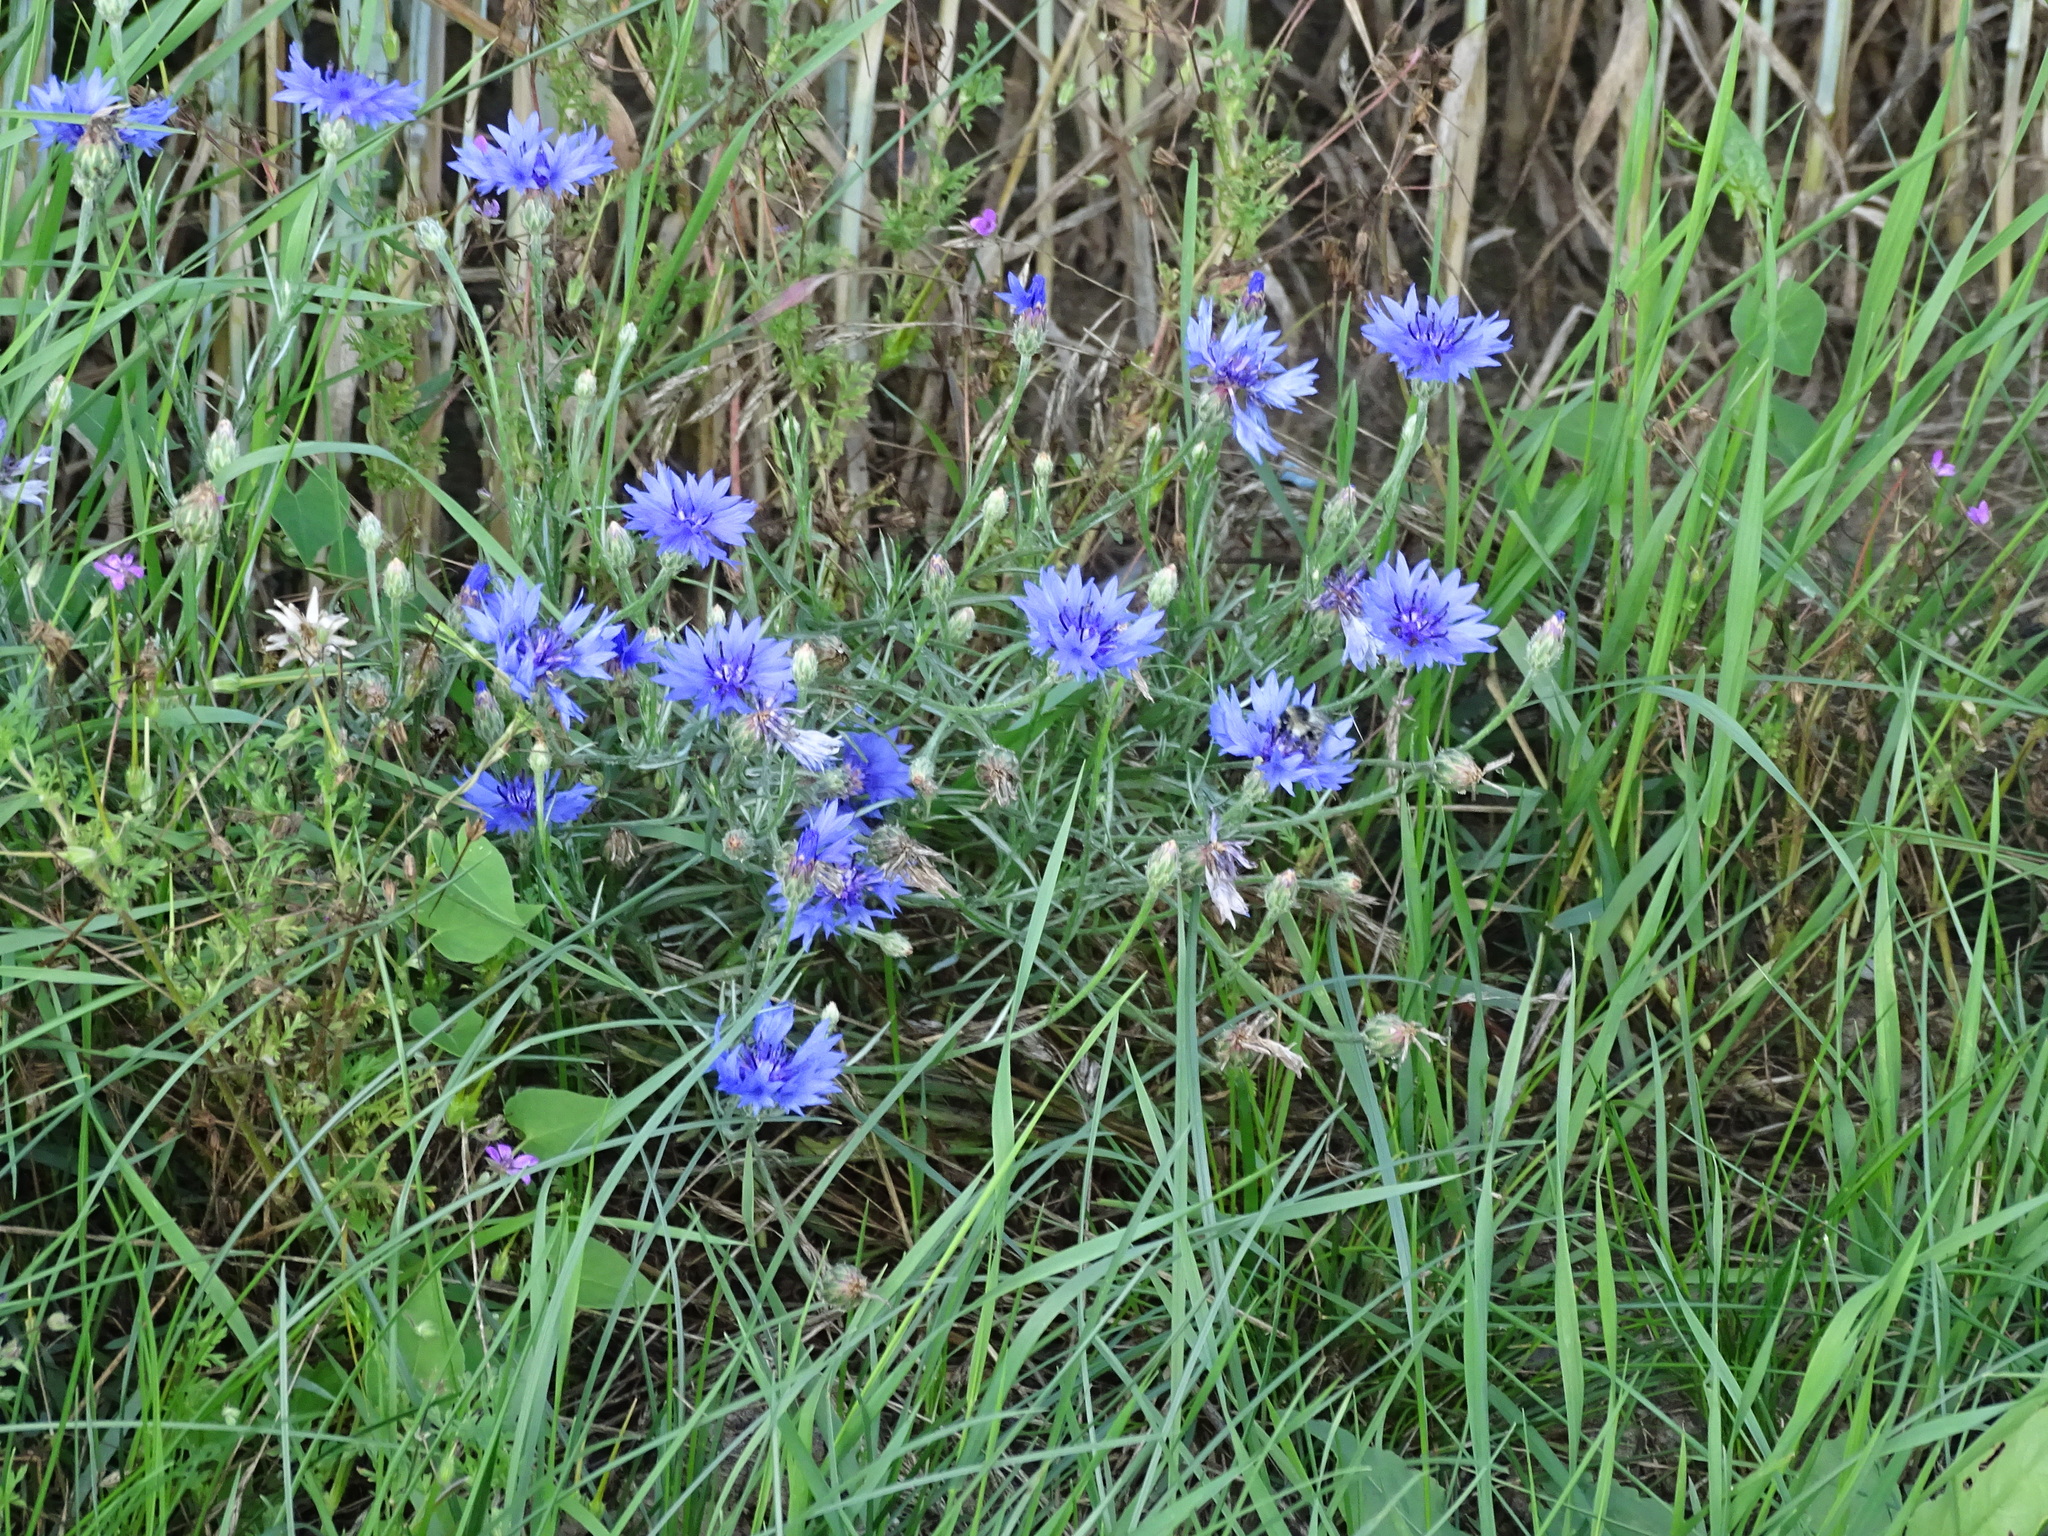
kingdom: Plantae
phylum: Tracheophyta
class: Magnoliopsida
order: Asterales
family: Asteraceae
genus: Centaurea
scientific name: Centaurea cyanus
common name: Cornflower
